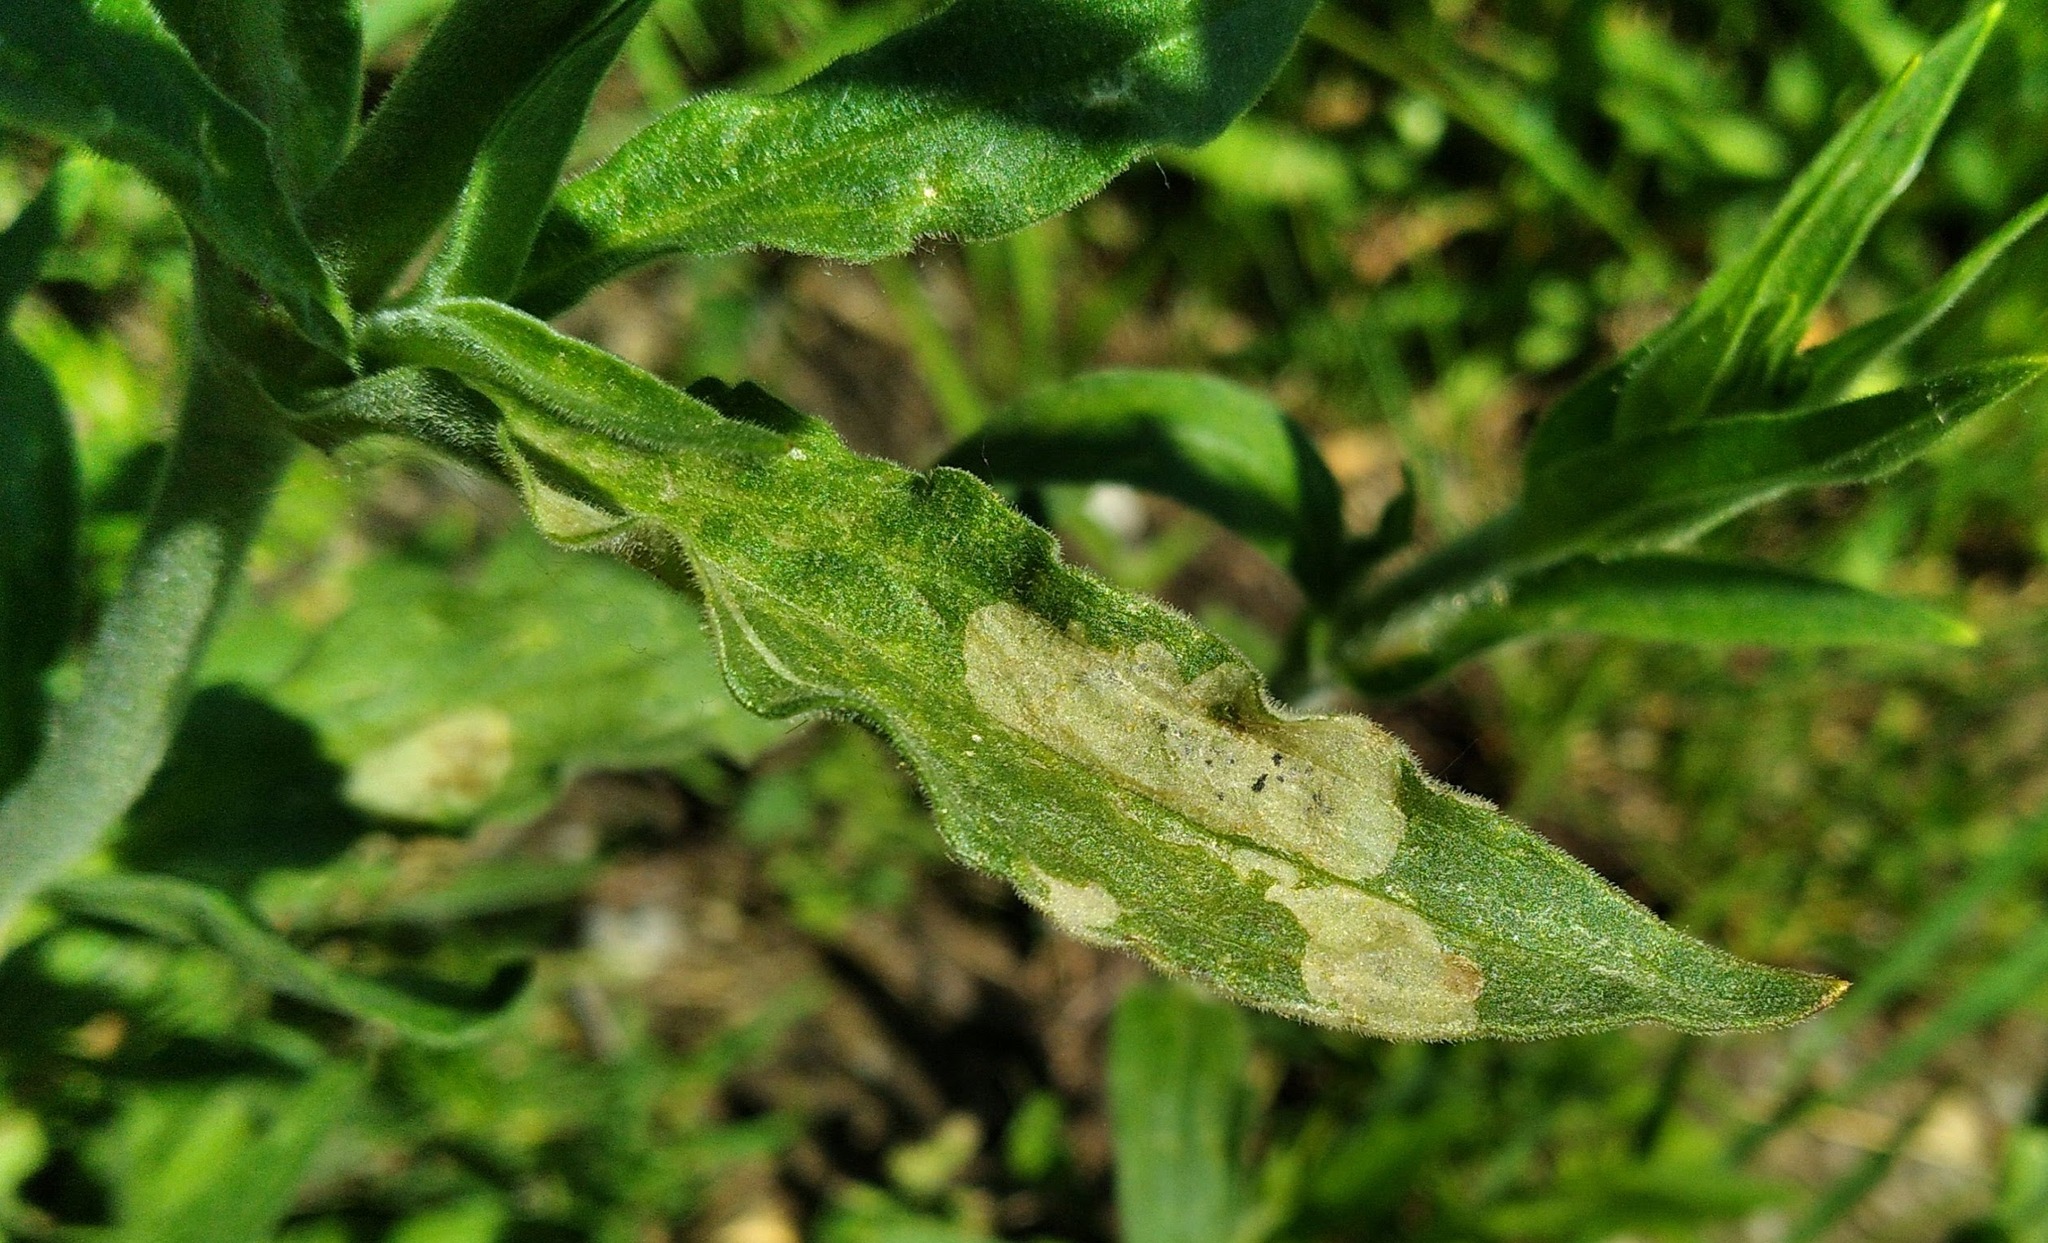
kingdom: Animalia
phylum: Arthropoda
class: Insecta
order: Diptera
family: Agromyzidae
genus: Amauromyza
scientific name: Amauromyza flavifrons
